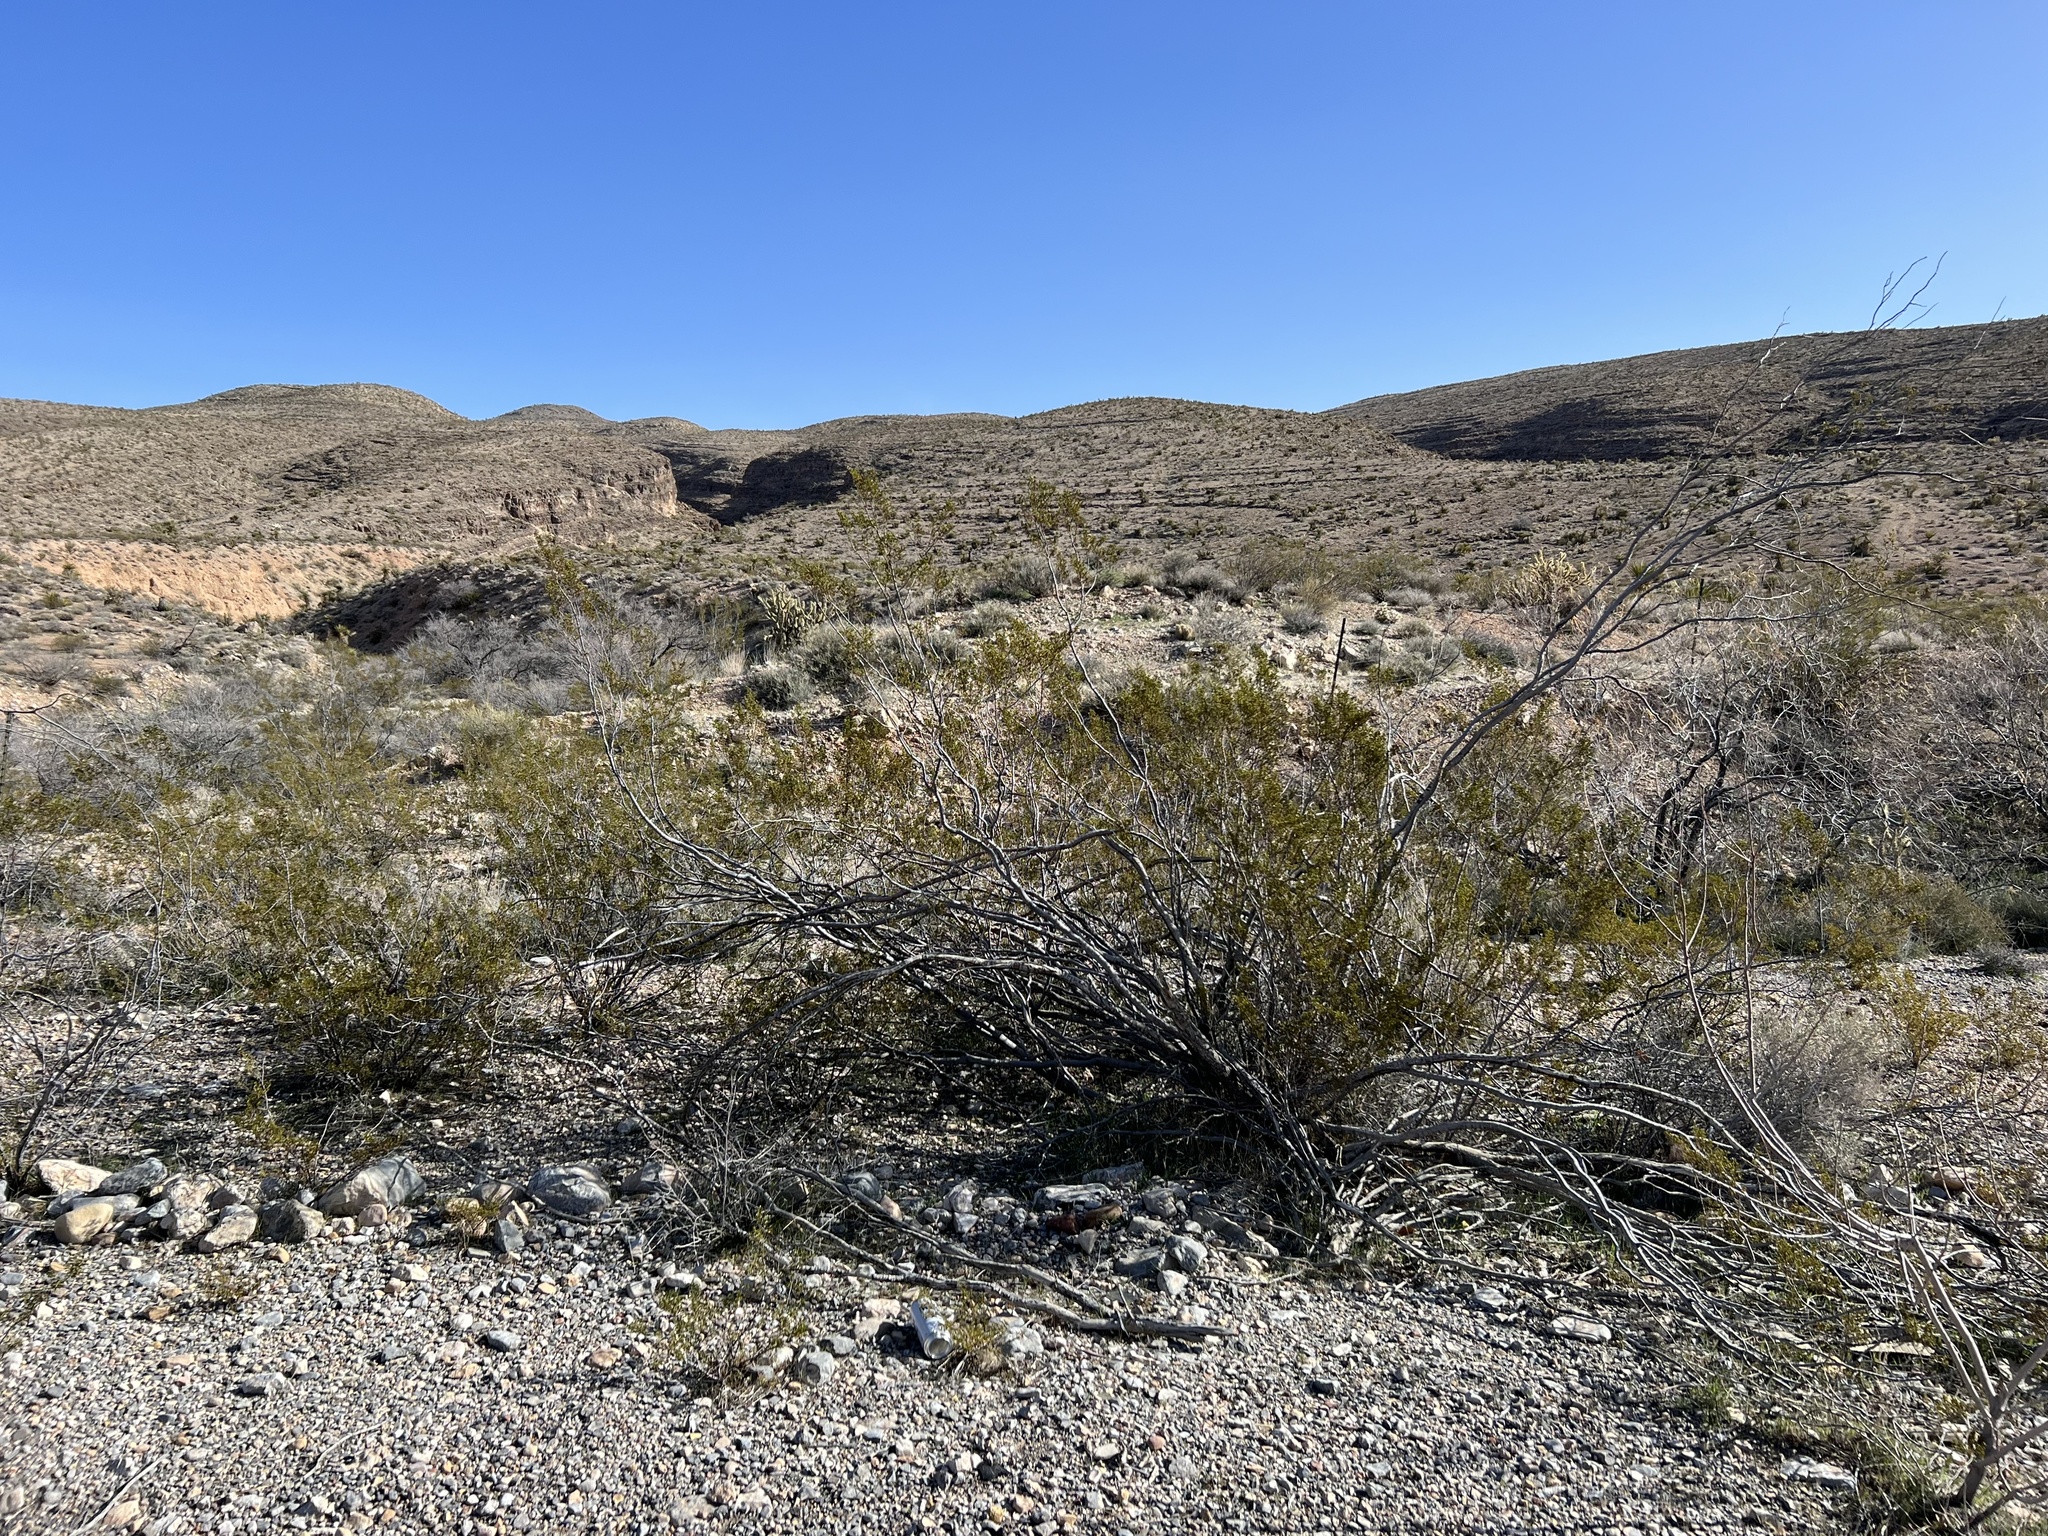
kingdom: Plantae
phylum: Tracheophyta
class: Magnoliopsida
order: Zygophyllales
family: Zygophyllaceae
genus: Larrea
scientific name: Larrea tridentata
